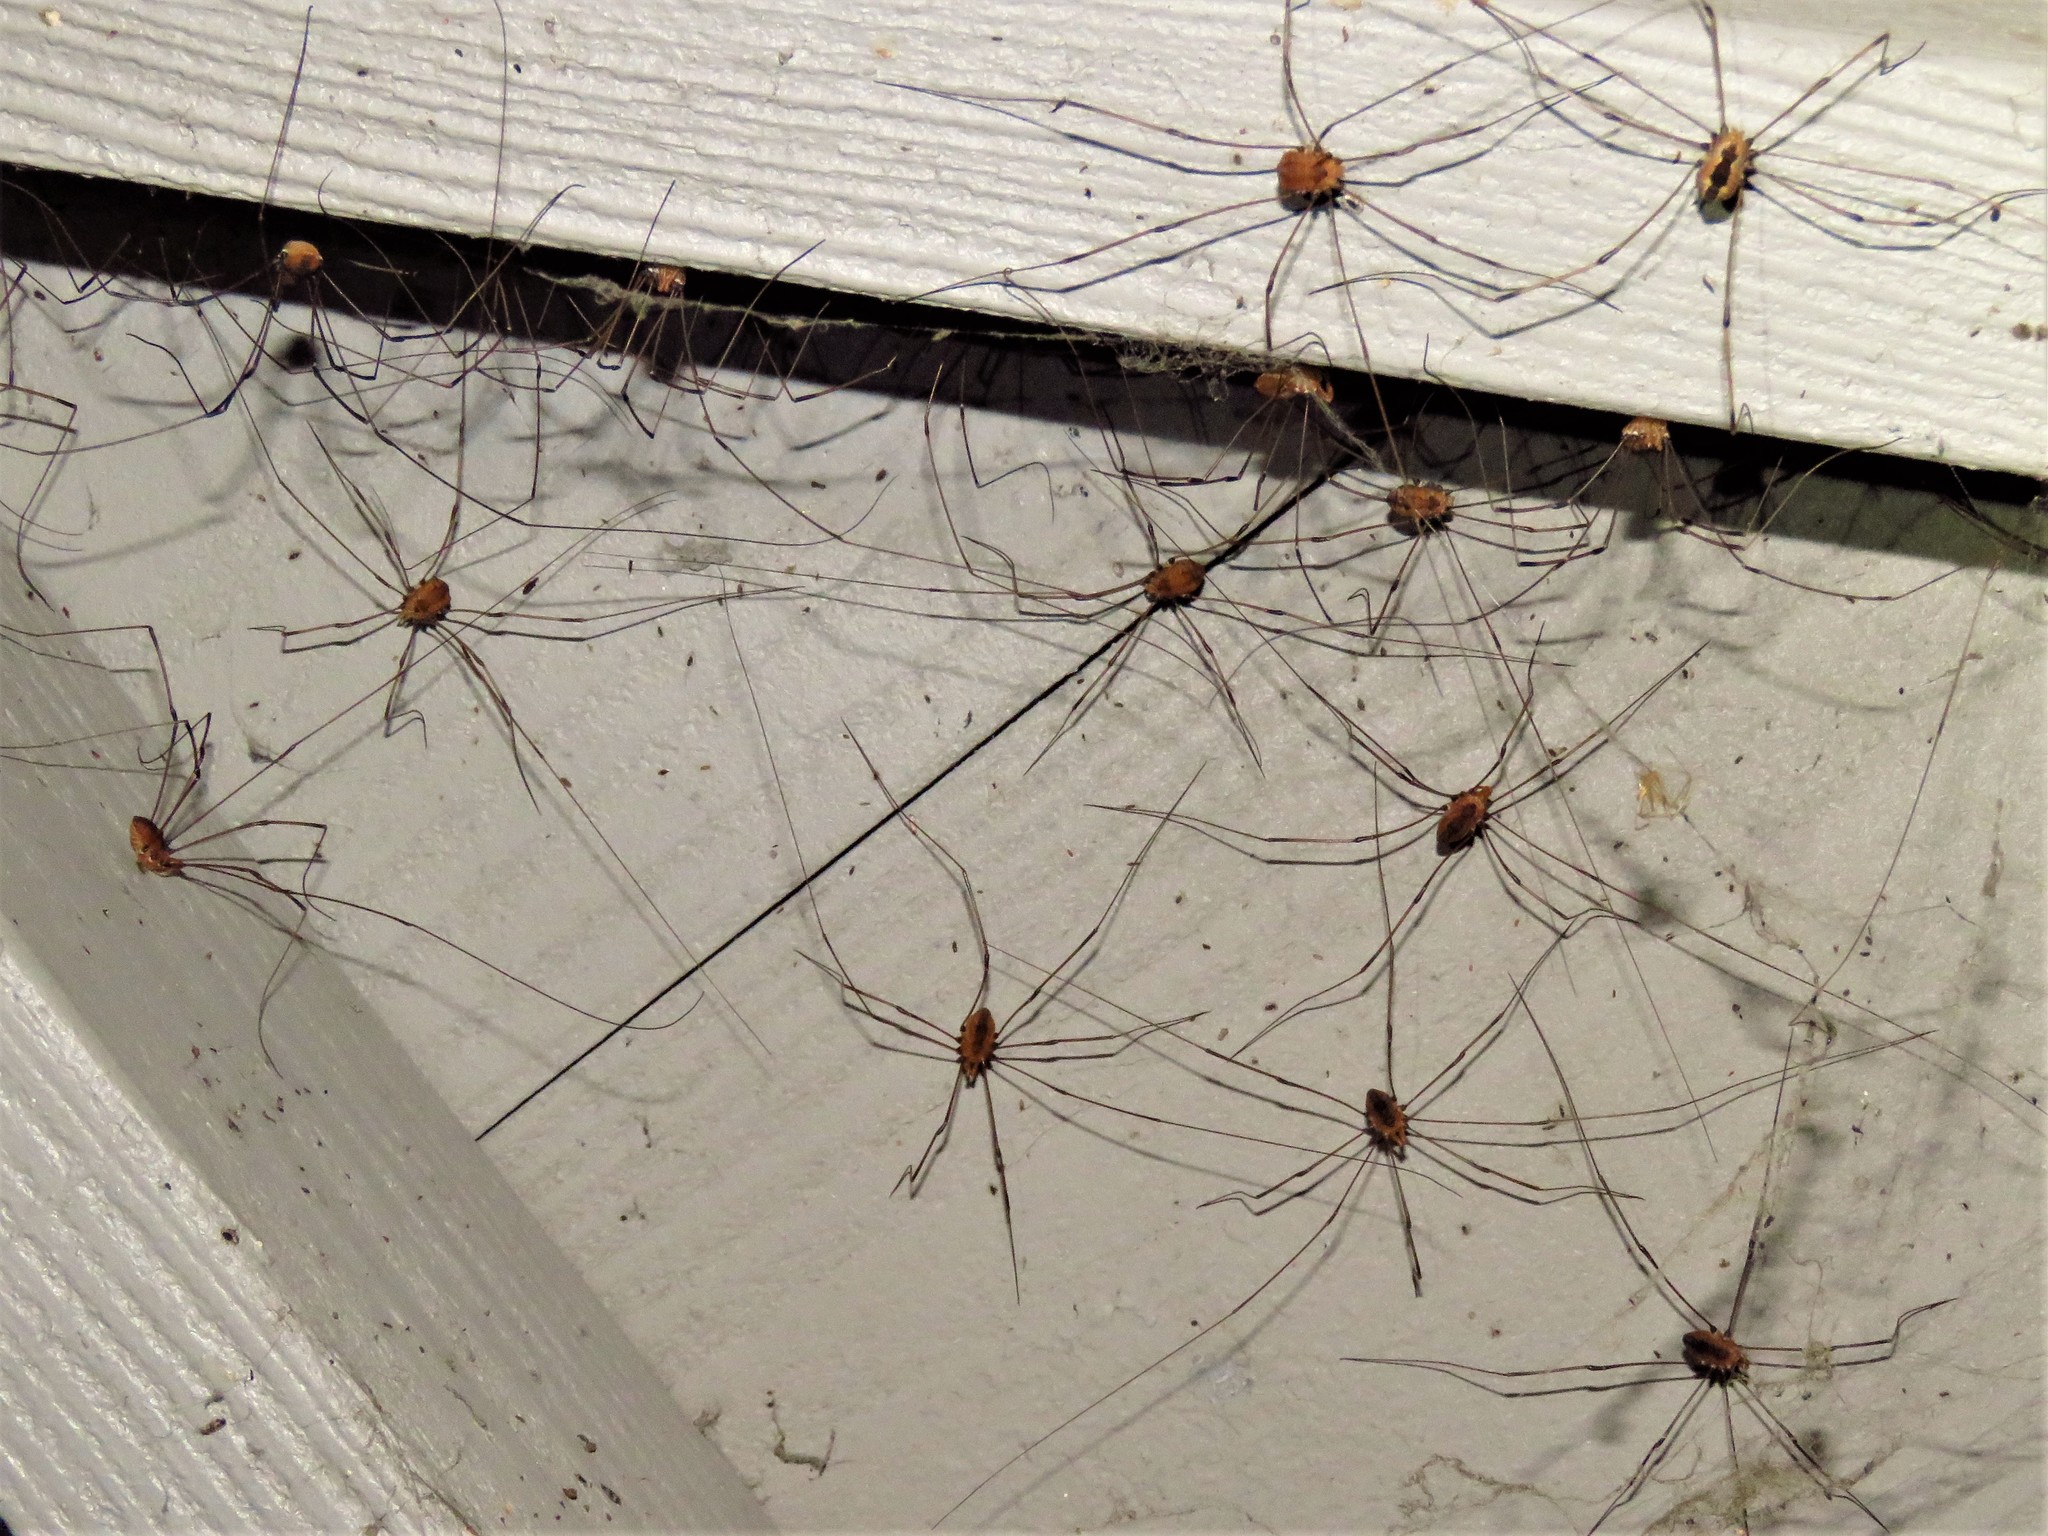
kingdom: Animalia
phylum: Arthropoda
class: Arachnida
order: Opiliones
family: Sclerosomatidae
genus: Leiobunum
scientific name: Leiobunum vittatum
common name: Eastern harvestman
